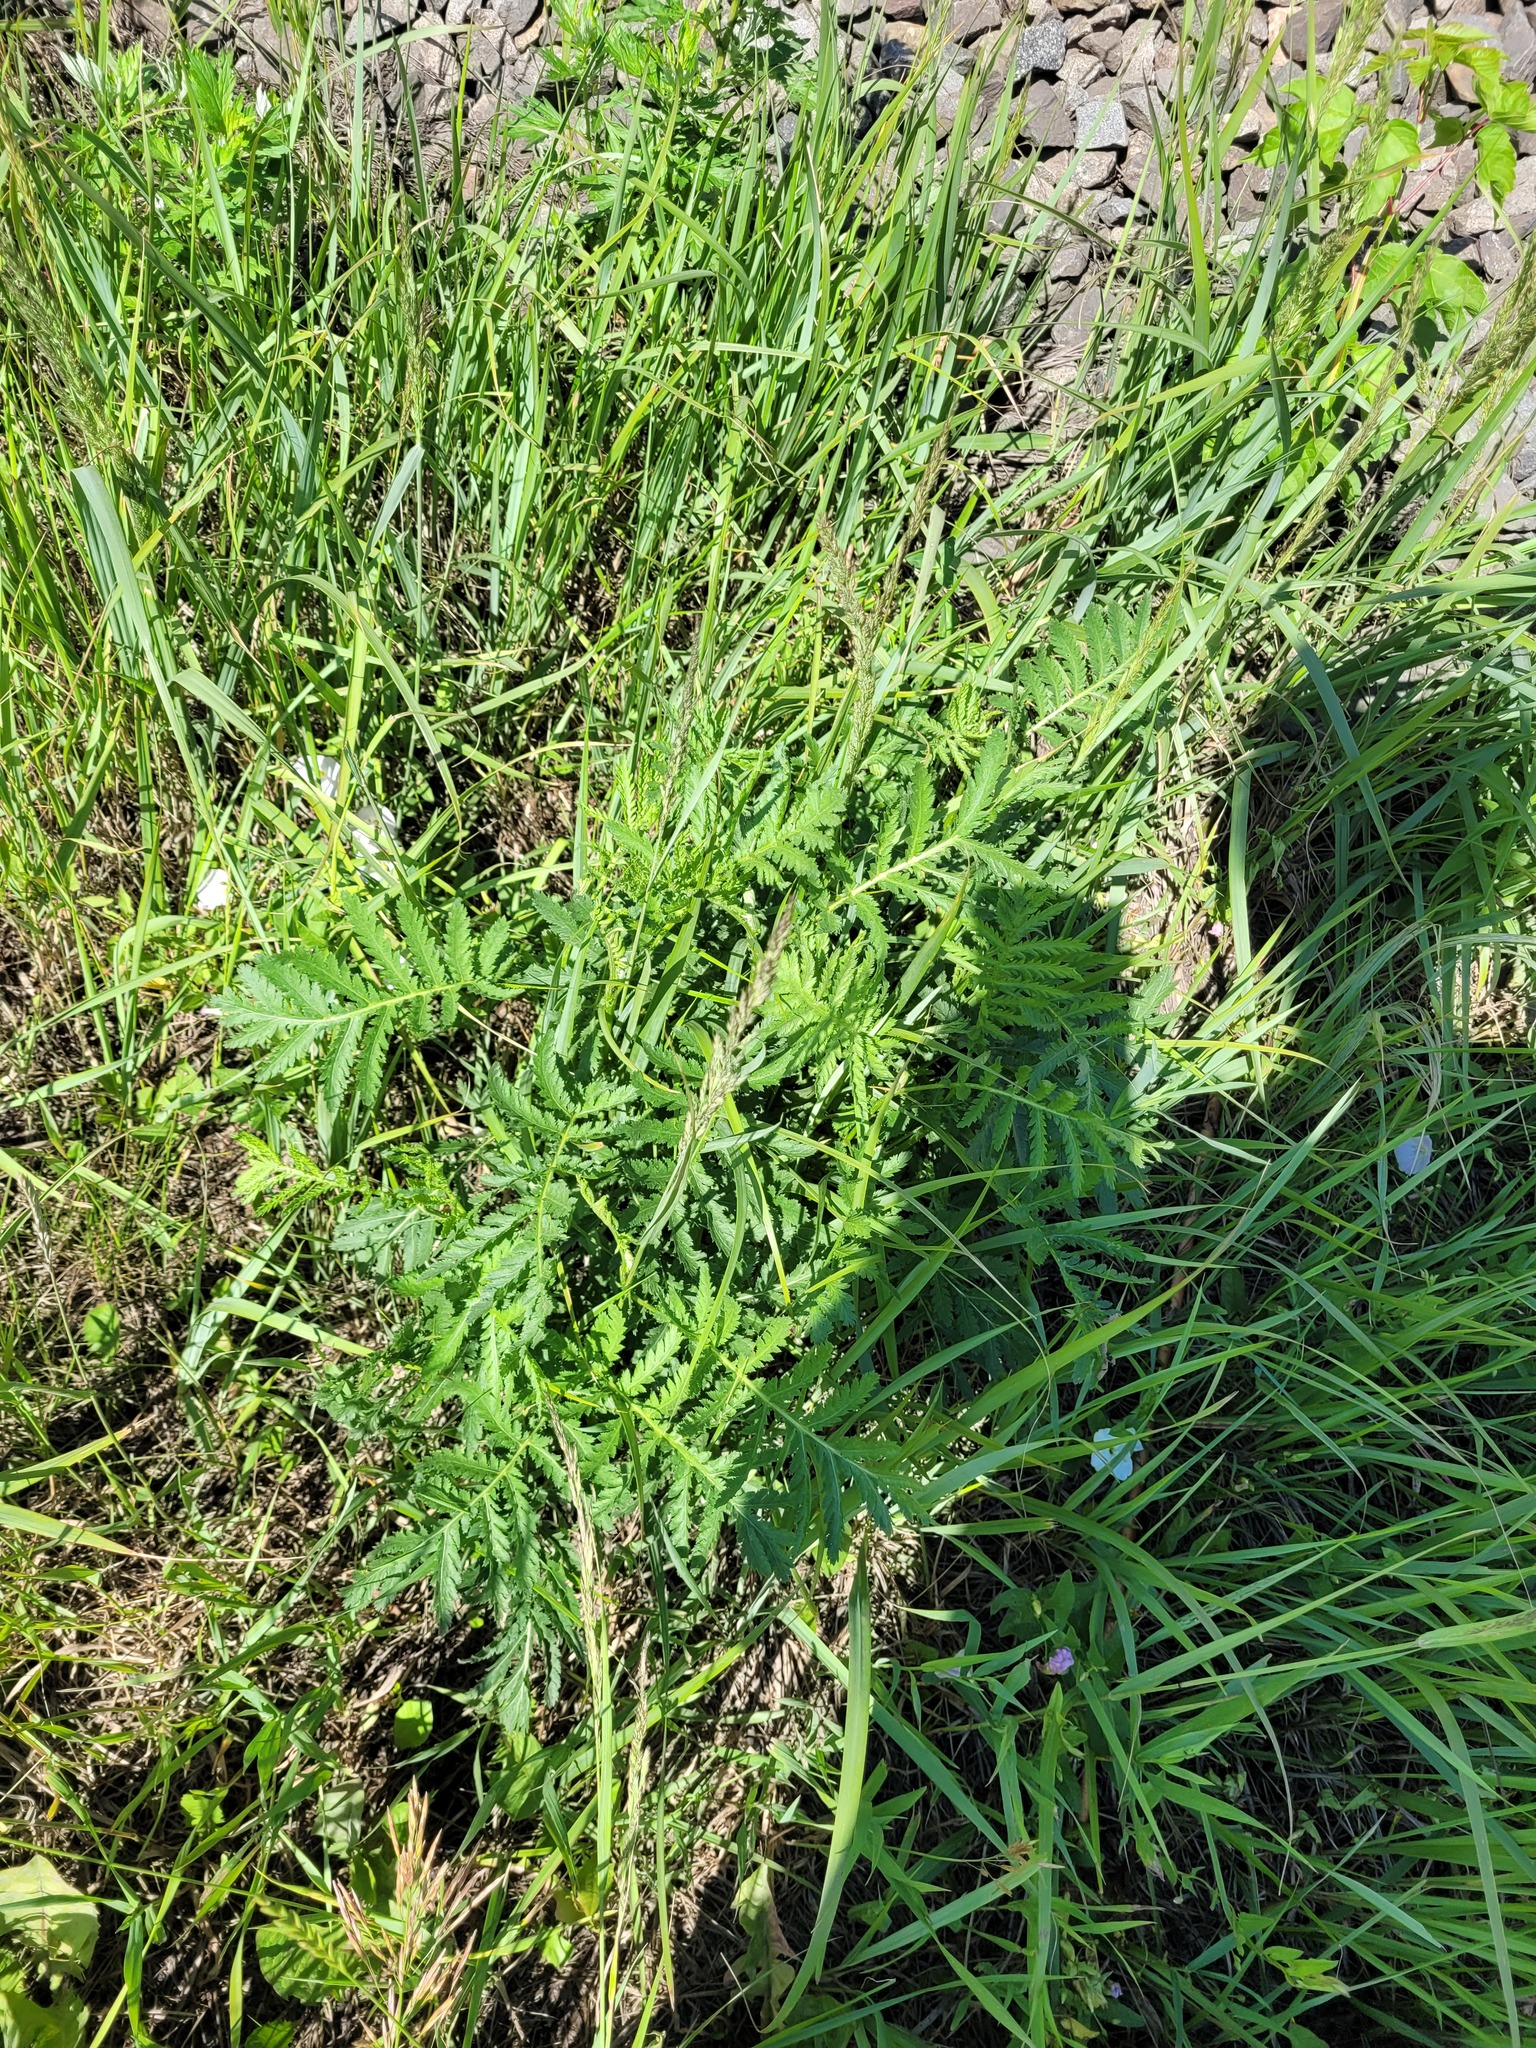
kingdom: Plantae
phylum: Tracheophyta
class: Magnoliopsida
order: Asterales
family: Asteraceae
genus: Tanacetum
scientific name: Tanacetum vulgare
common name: Common tansy
